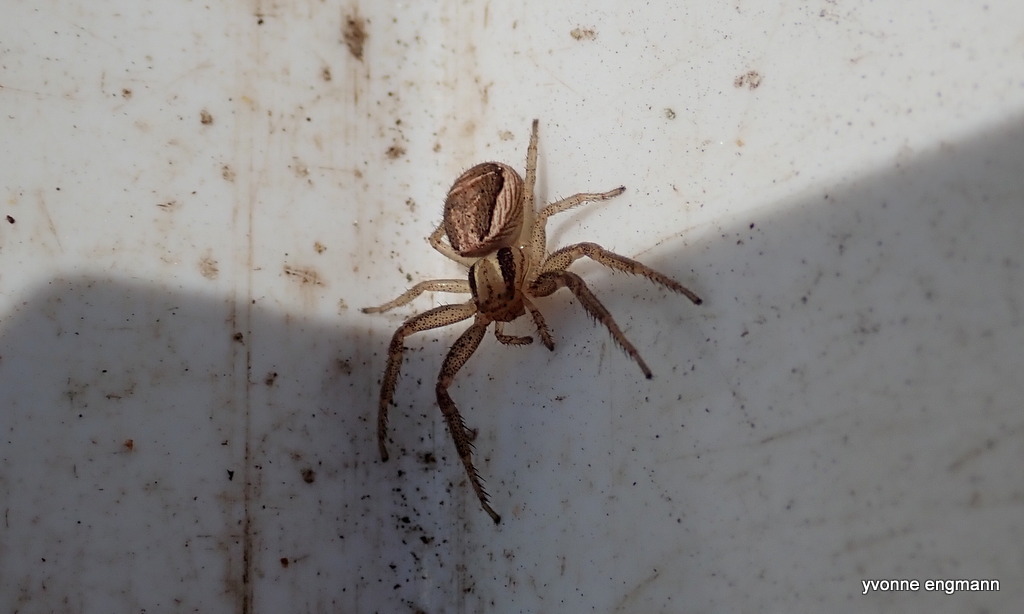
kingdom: Animalia
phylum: Arthropoda
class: Arachnida
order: Araneae
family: Thomisidae
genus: Xysticus
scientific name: Xysticus ulmi
